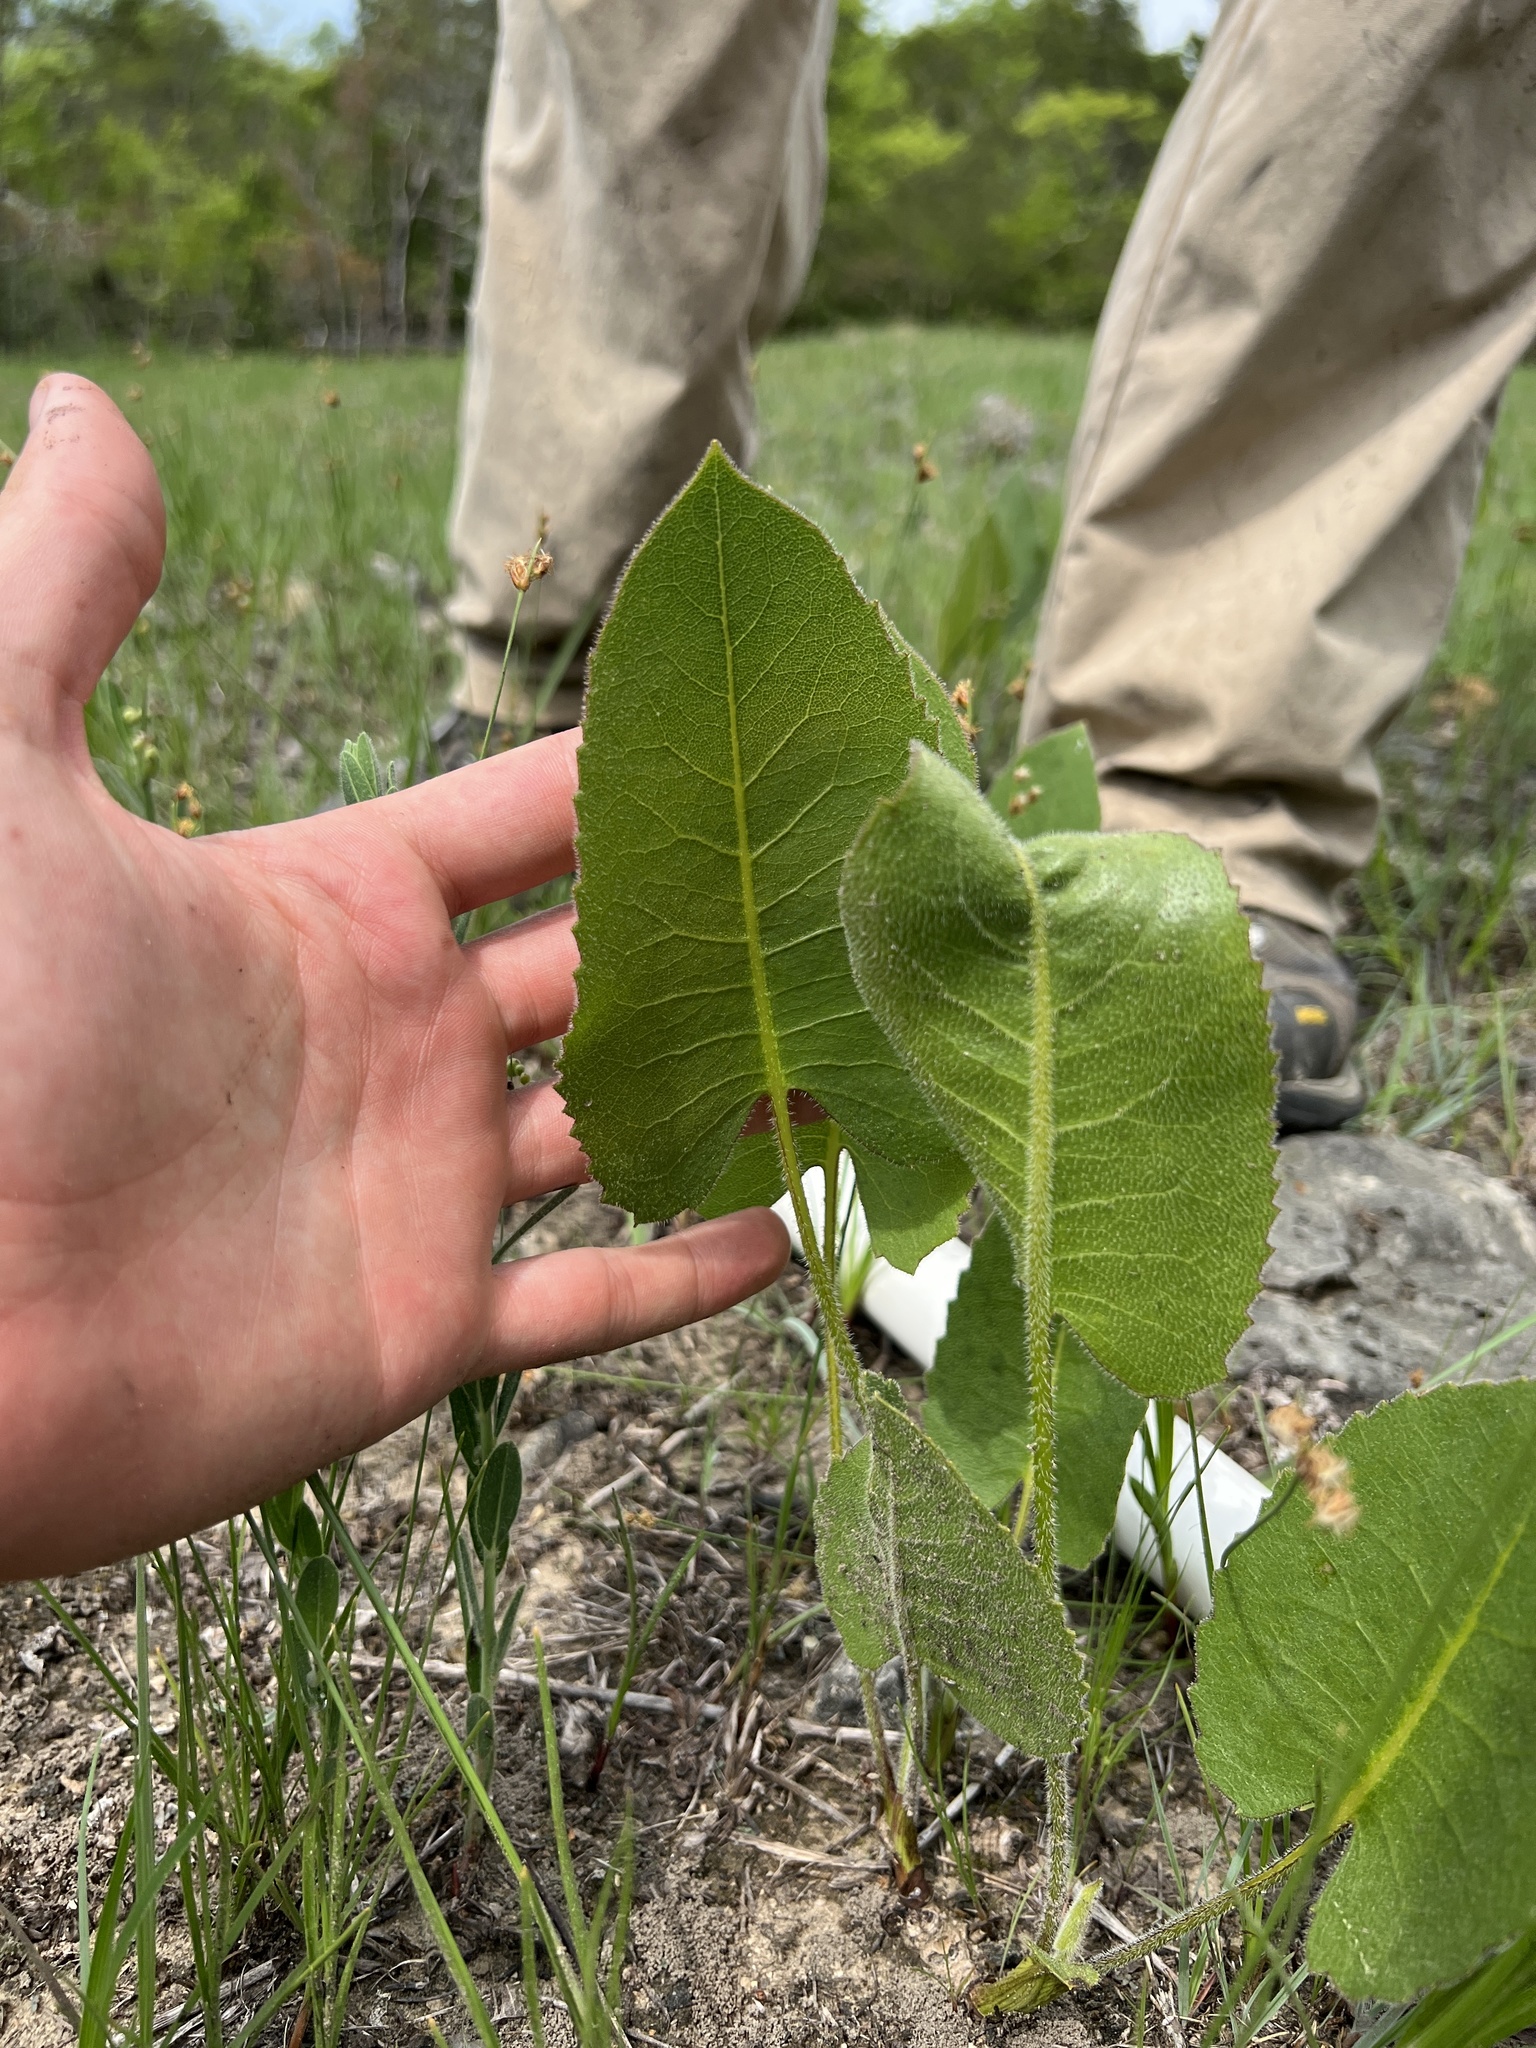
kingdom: Plantae
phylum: Tracheophyta
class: Magnoliopsida
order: Asterales
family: Asteraceae
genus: Silphium
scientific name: Silphium terebinthinaceum
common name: Basal-leaf rosinweed
